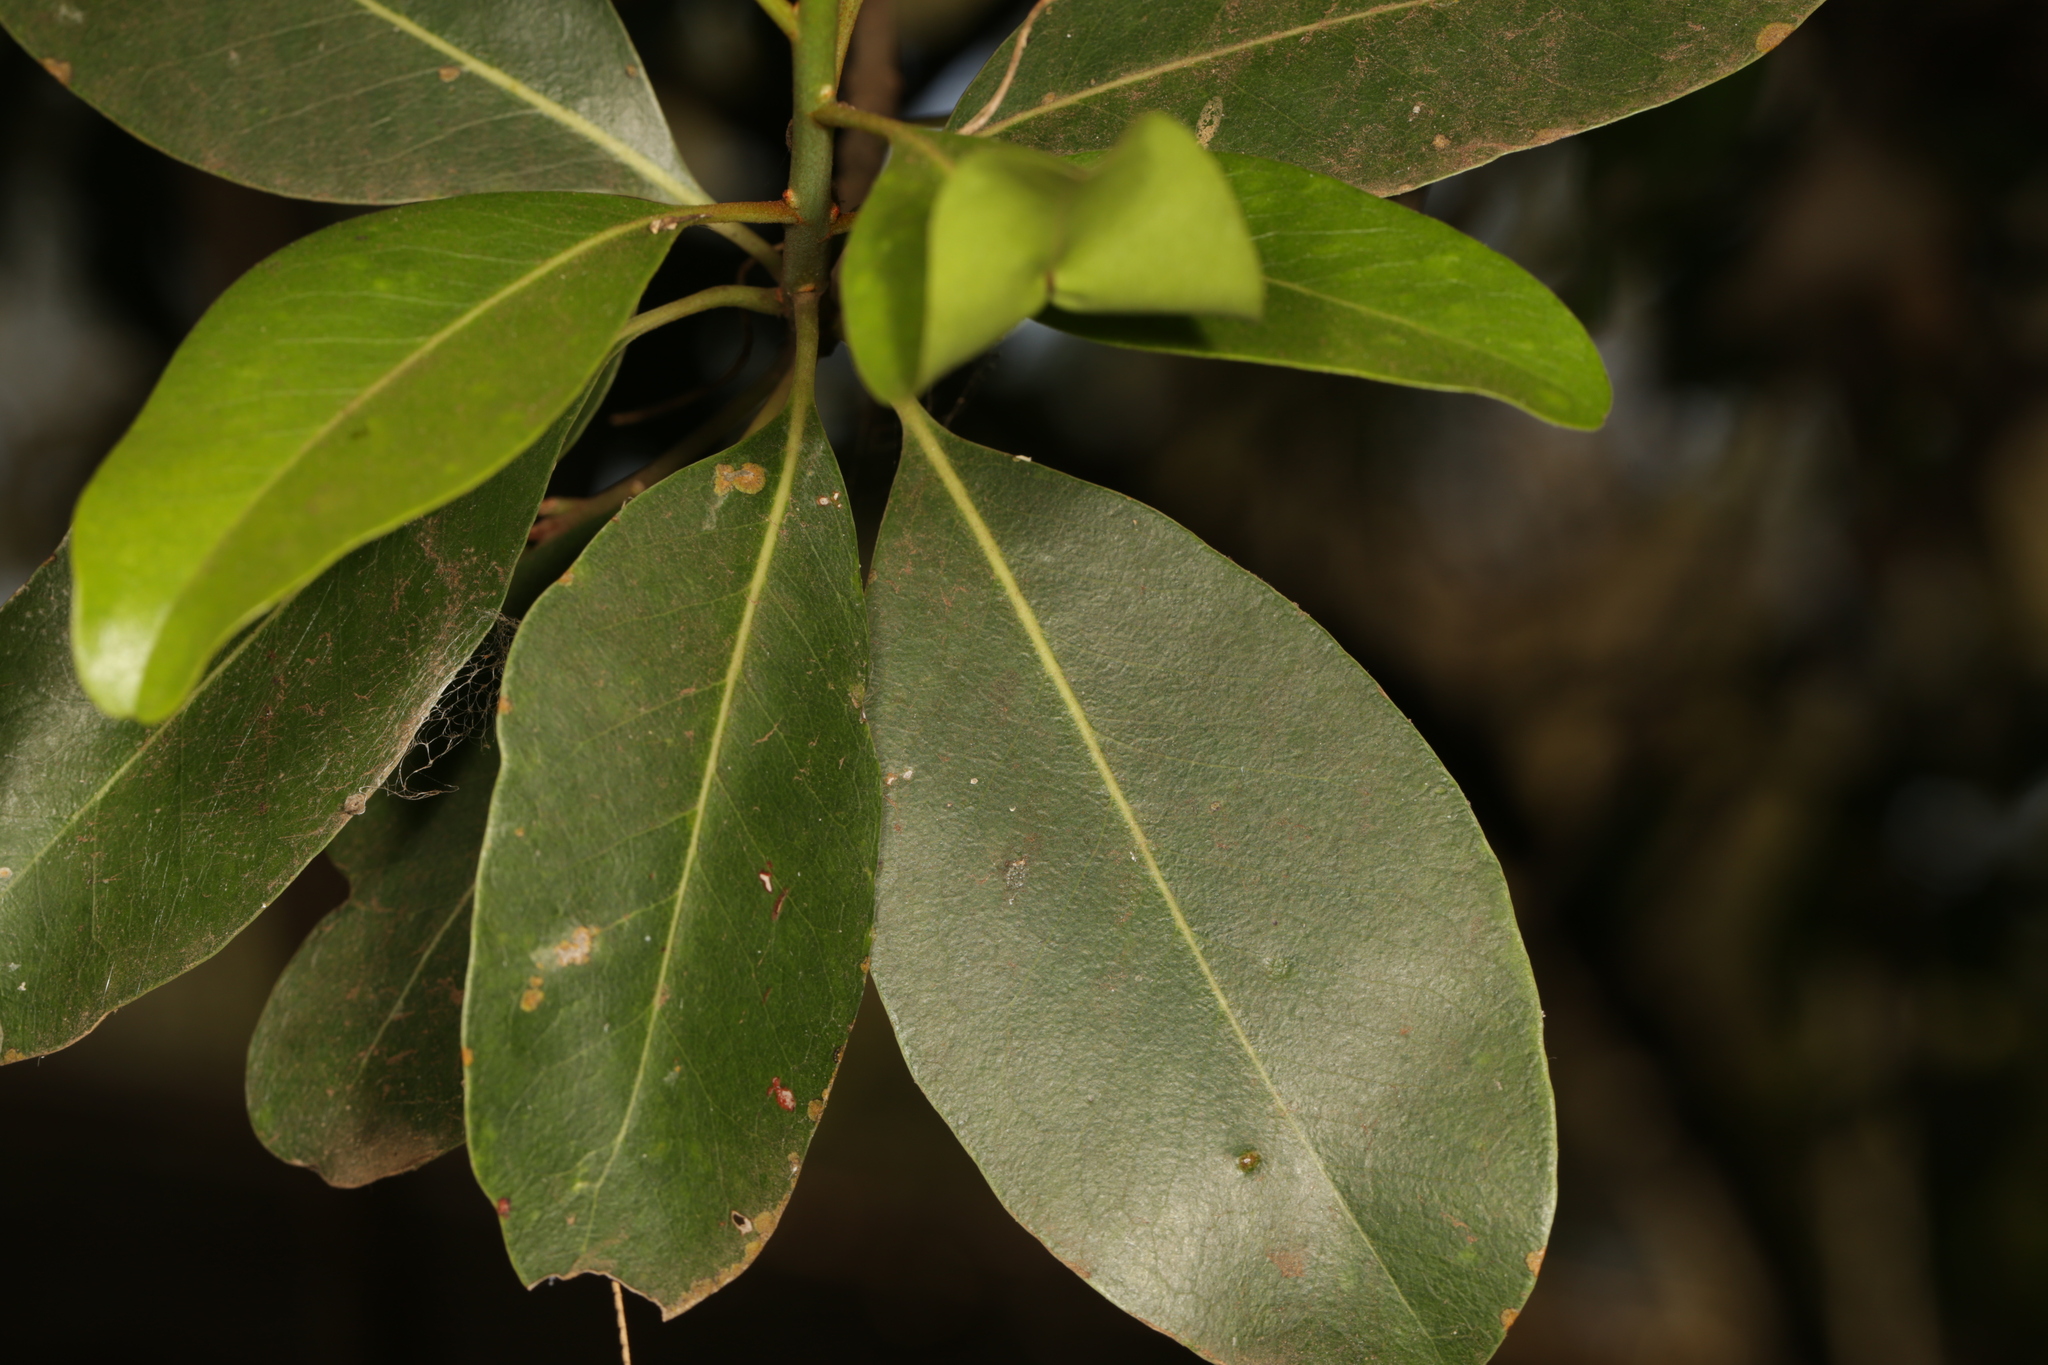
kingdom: Plantae
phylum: Tracheophyta
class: Magnoliopsida
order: Ericales
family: Sapotaceae
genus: Sideroxylon
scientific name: Sideroxylon inerme
